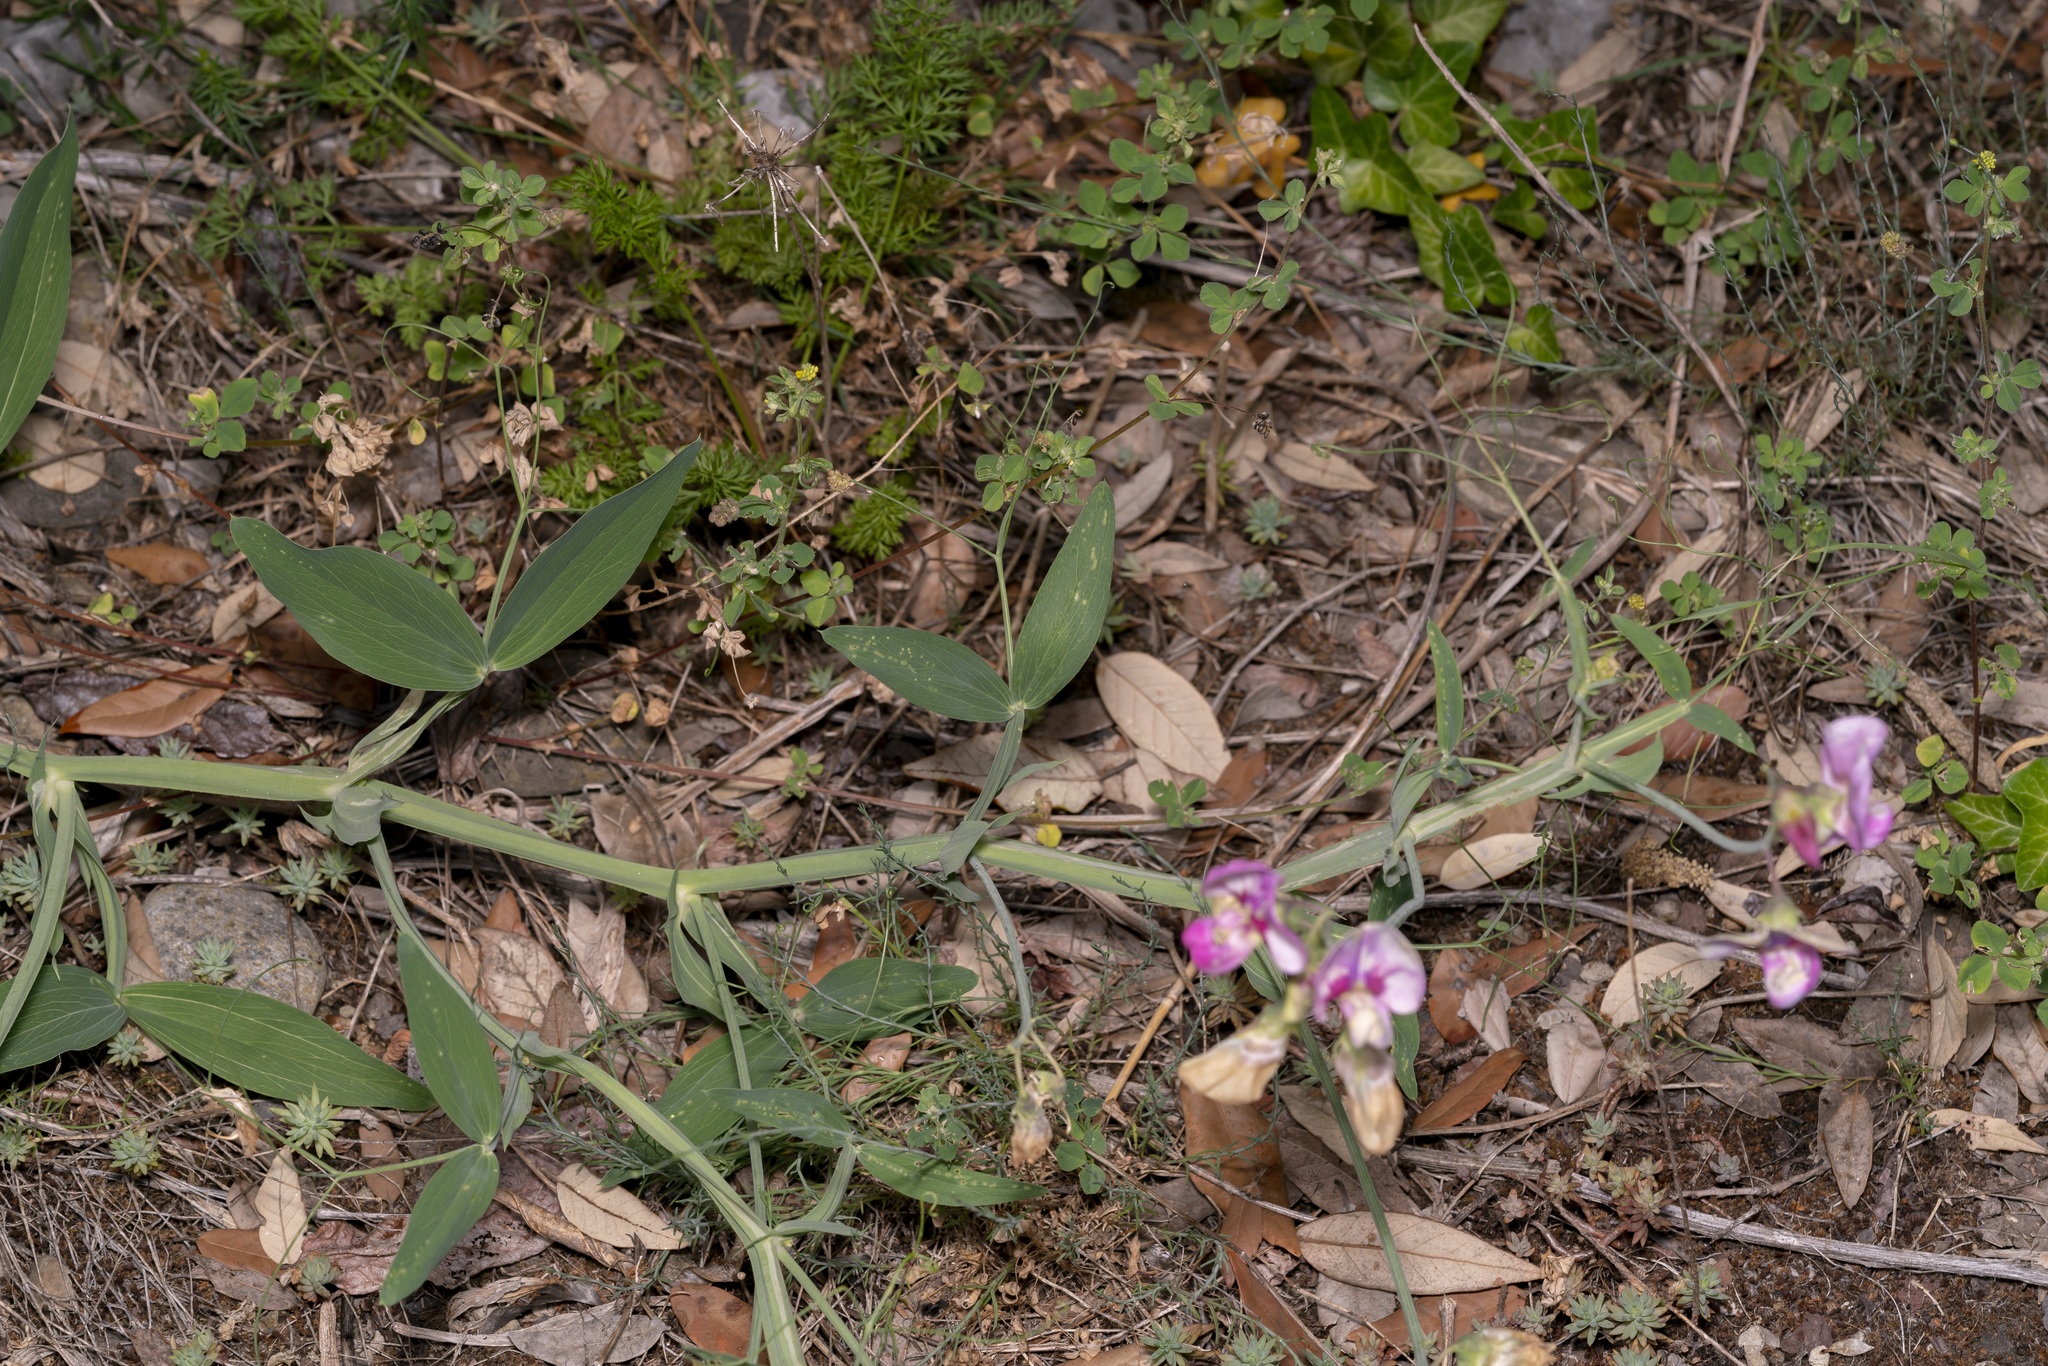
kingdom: Plantae
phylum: Tracheophyta
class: Magnoliopsida
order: Fabales
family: Fabaceae
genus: Lathyrus
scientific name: Lathyrus latifolius
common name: Perennial pea
